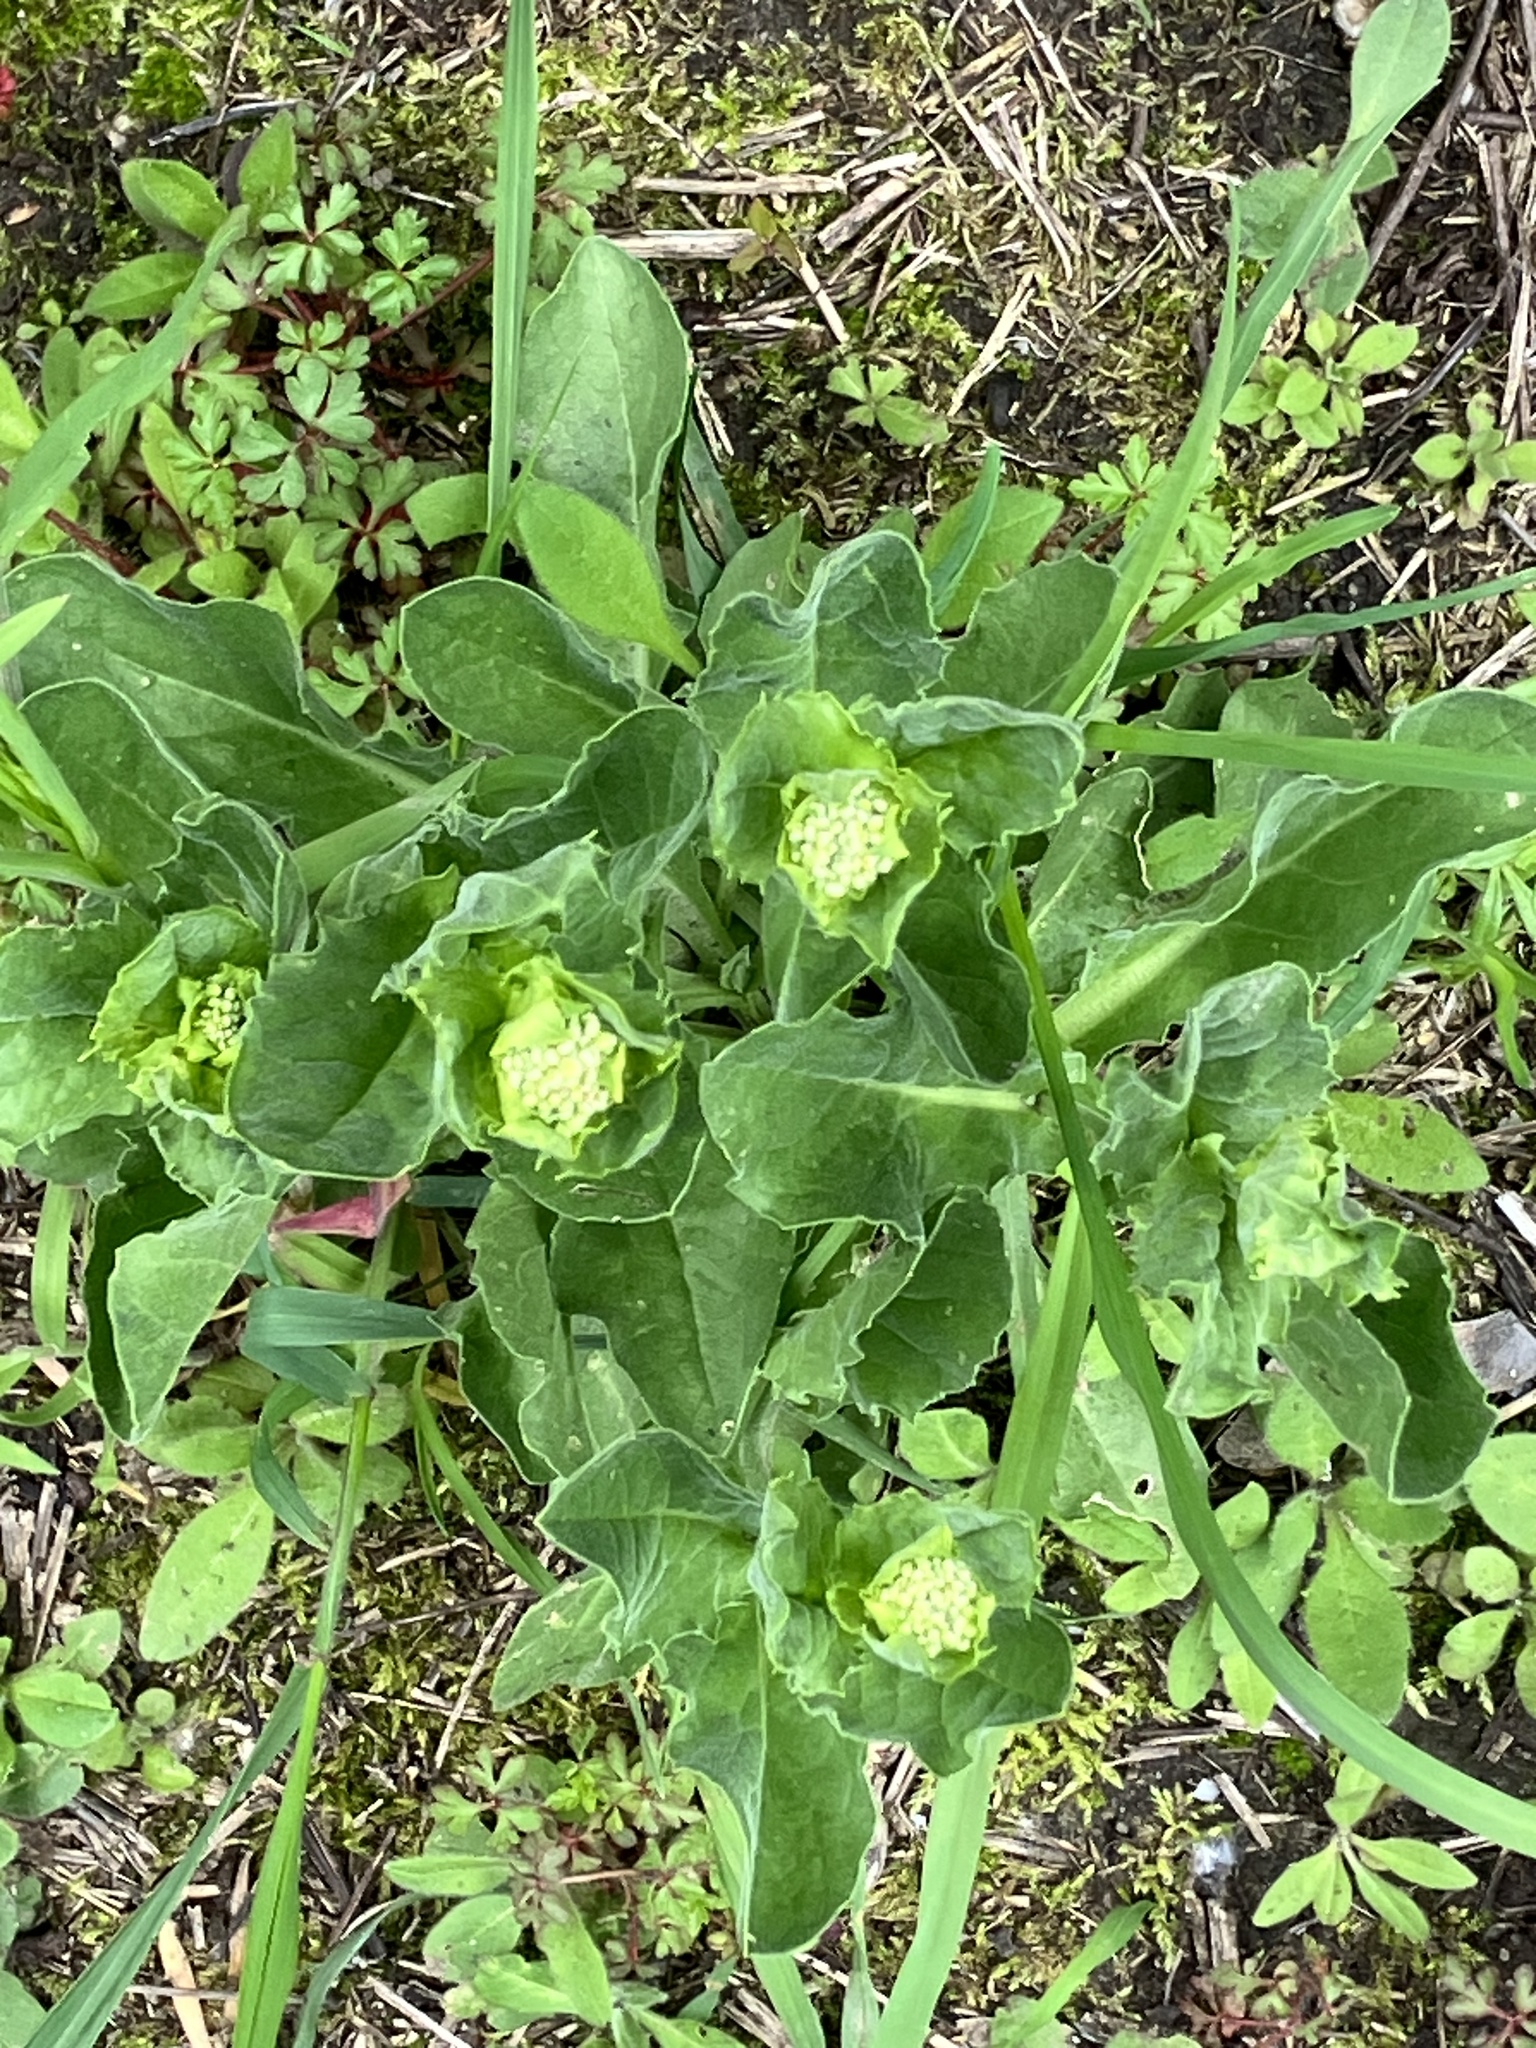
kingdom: Plantae
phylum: Tracheophyta
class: Magnoliopsida
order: Brassicales
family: Brassicaceae
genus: Lepidium
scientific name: Lepidium draba
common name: Hoary cress
